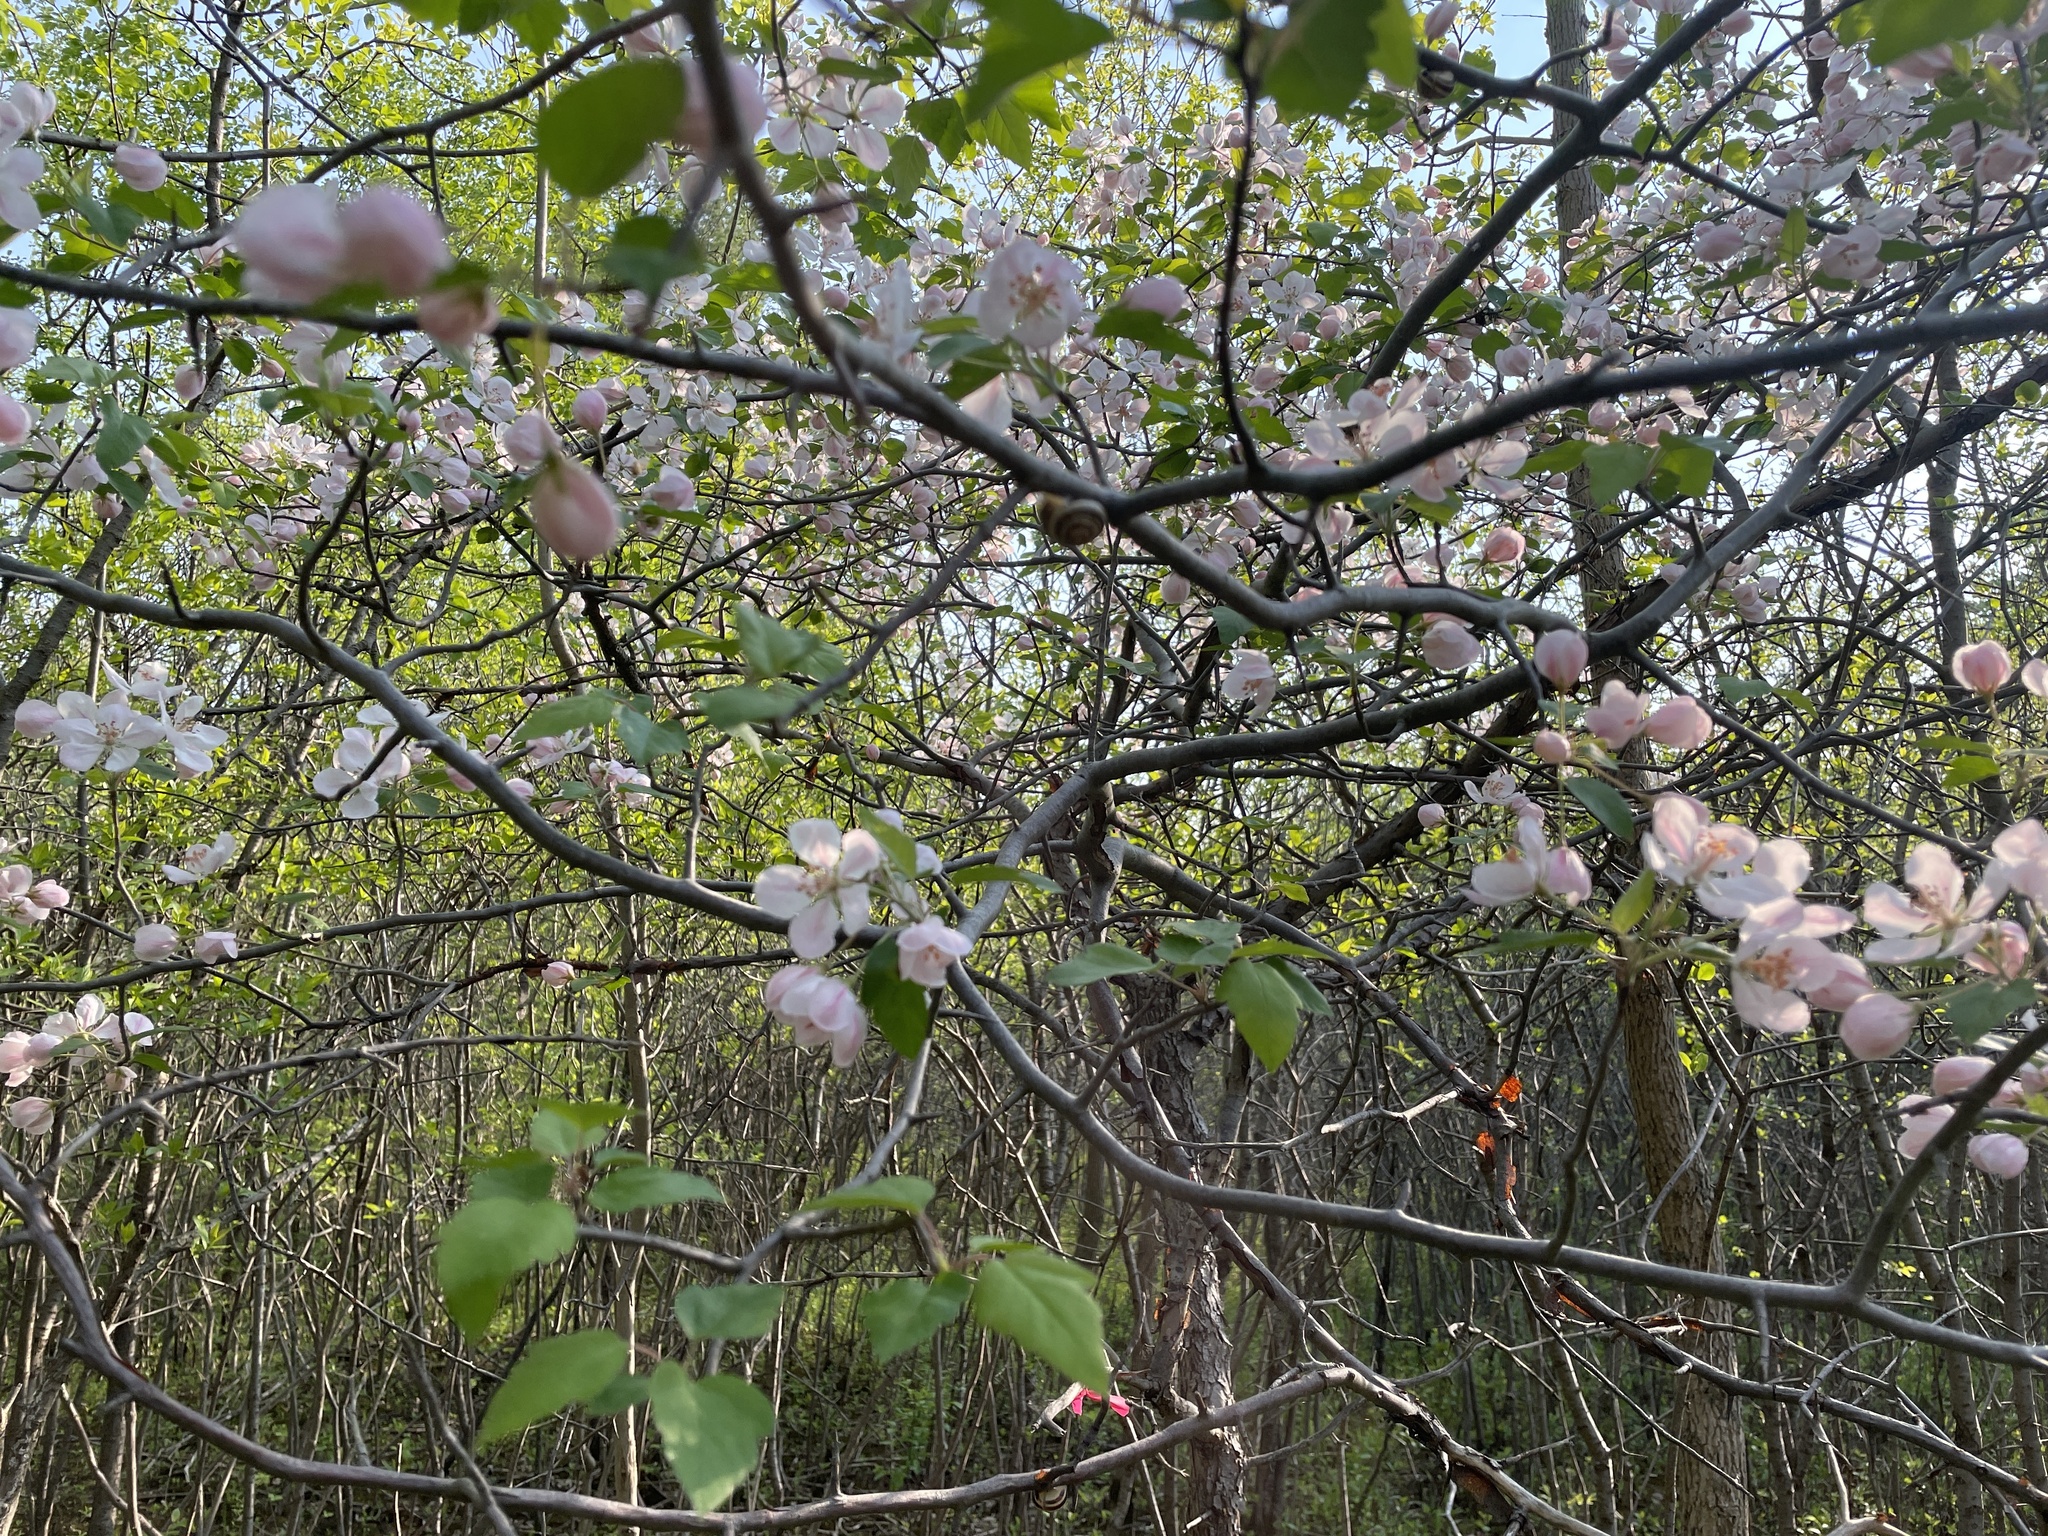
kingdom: Plantae
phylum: Tracheophyta
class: Magnoliopsida
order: Rosales
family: Rosaceae
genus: Malus
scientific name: Malus coronaria
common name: Sweet crab apple
